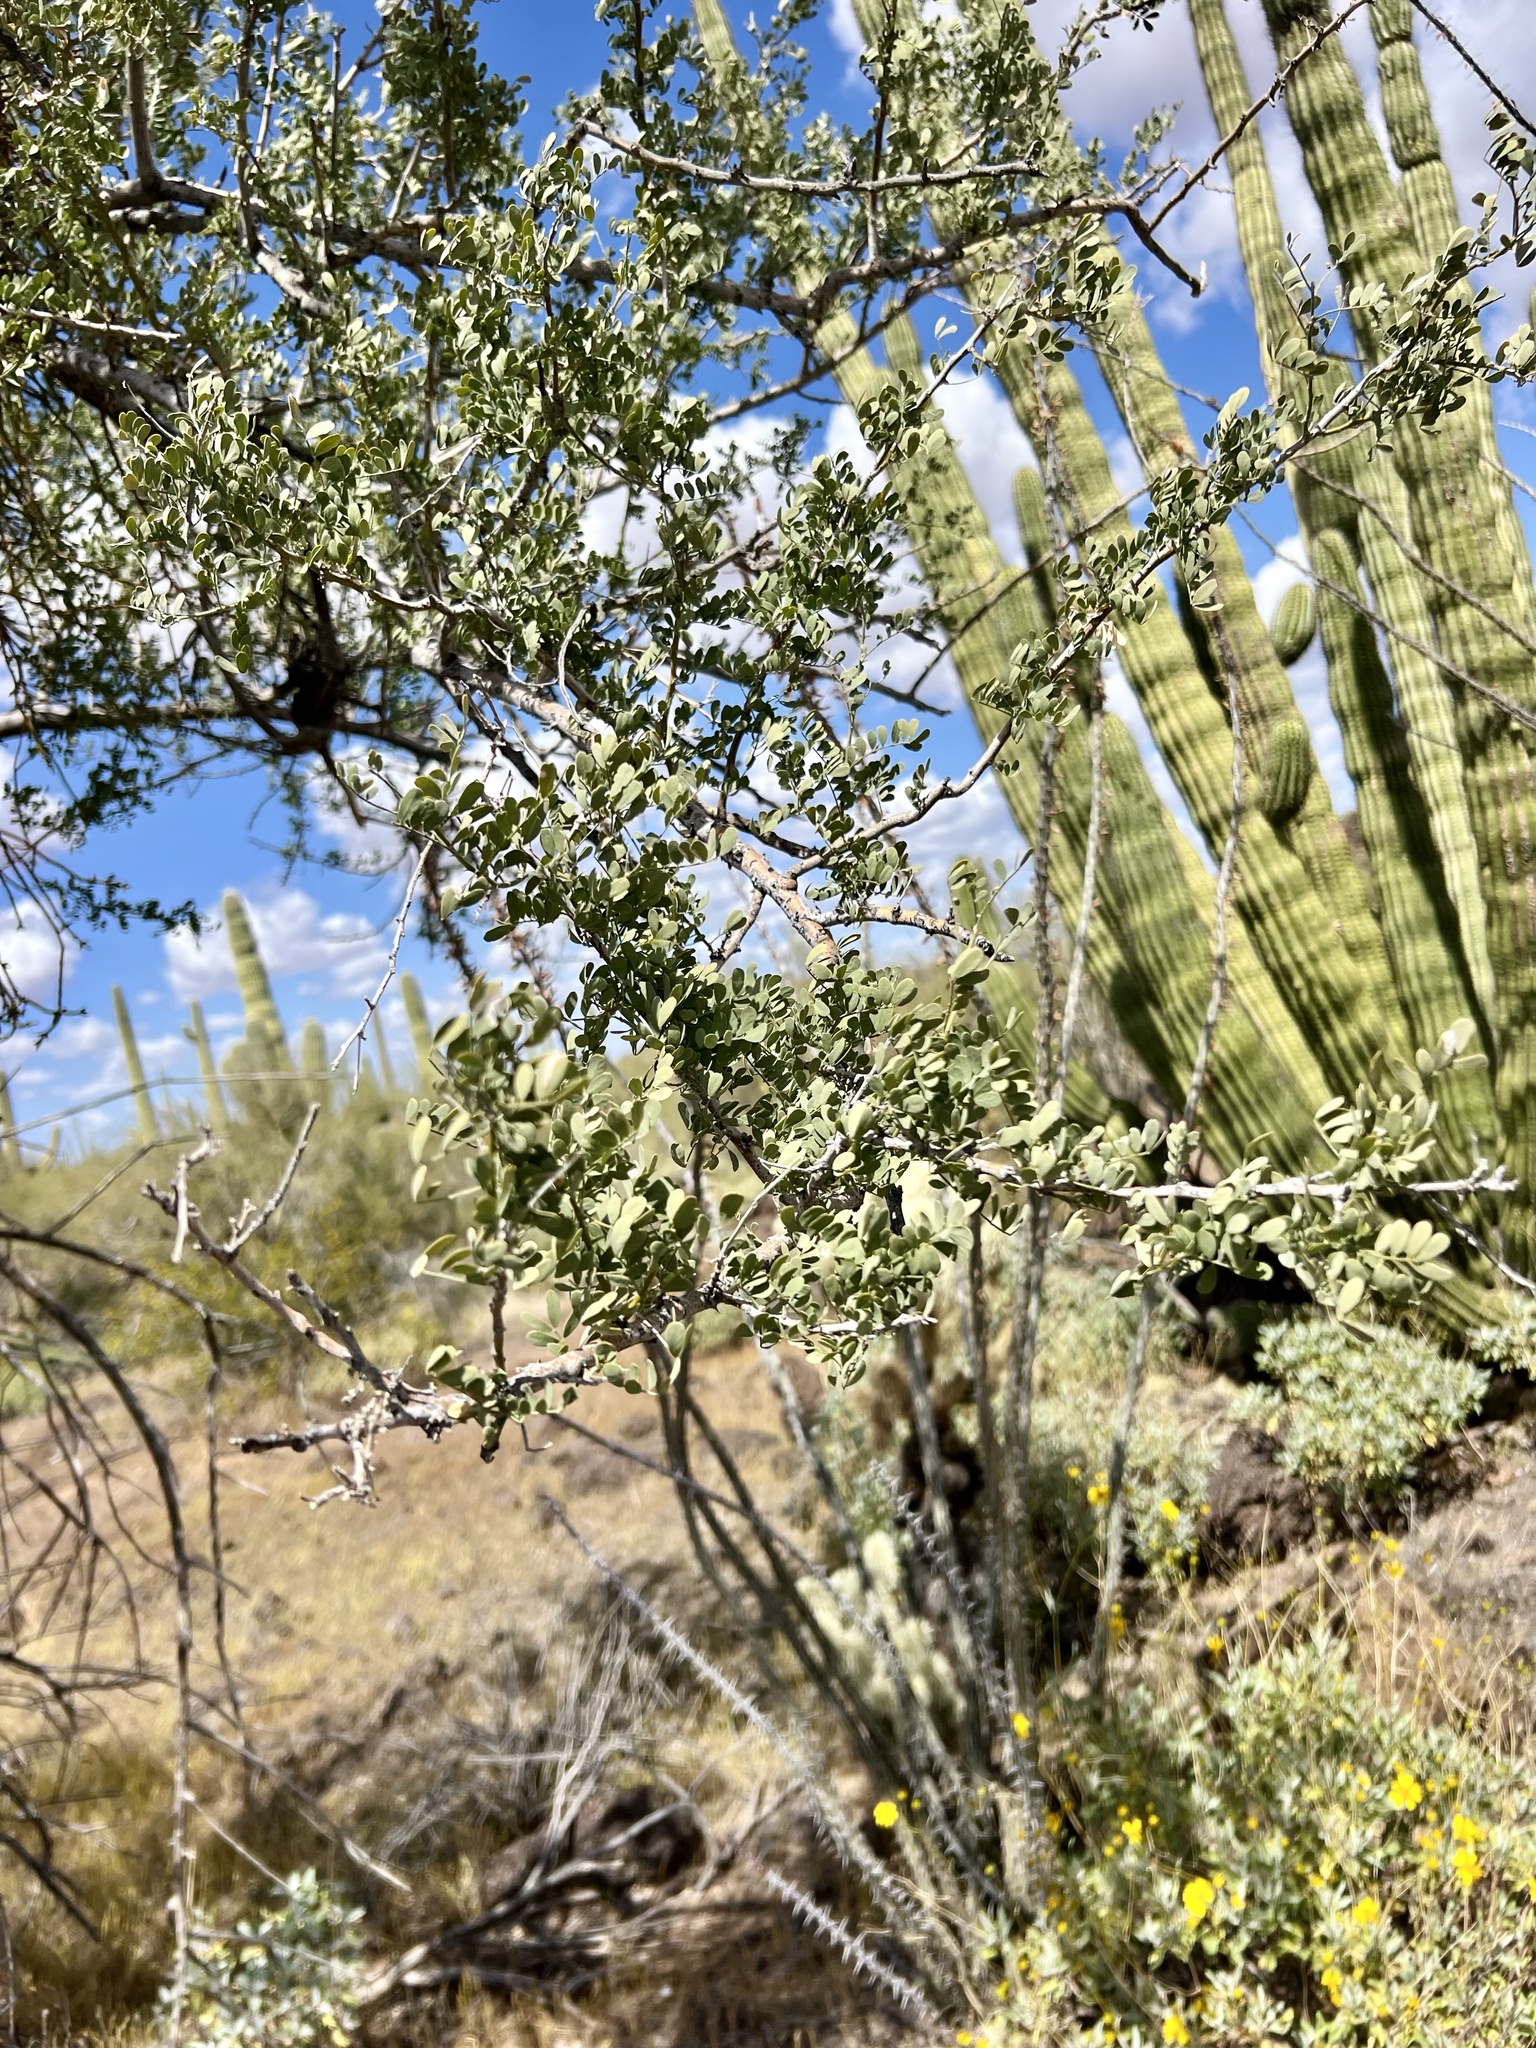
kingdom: Plantae
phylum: Tracheophyta
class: Magnoliopsida
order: Fabales
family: Fabaceae
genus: Olneya
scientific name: Olneya tesota
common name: Desert ironwood
